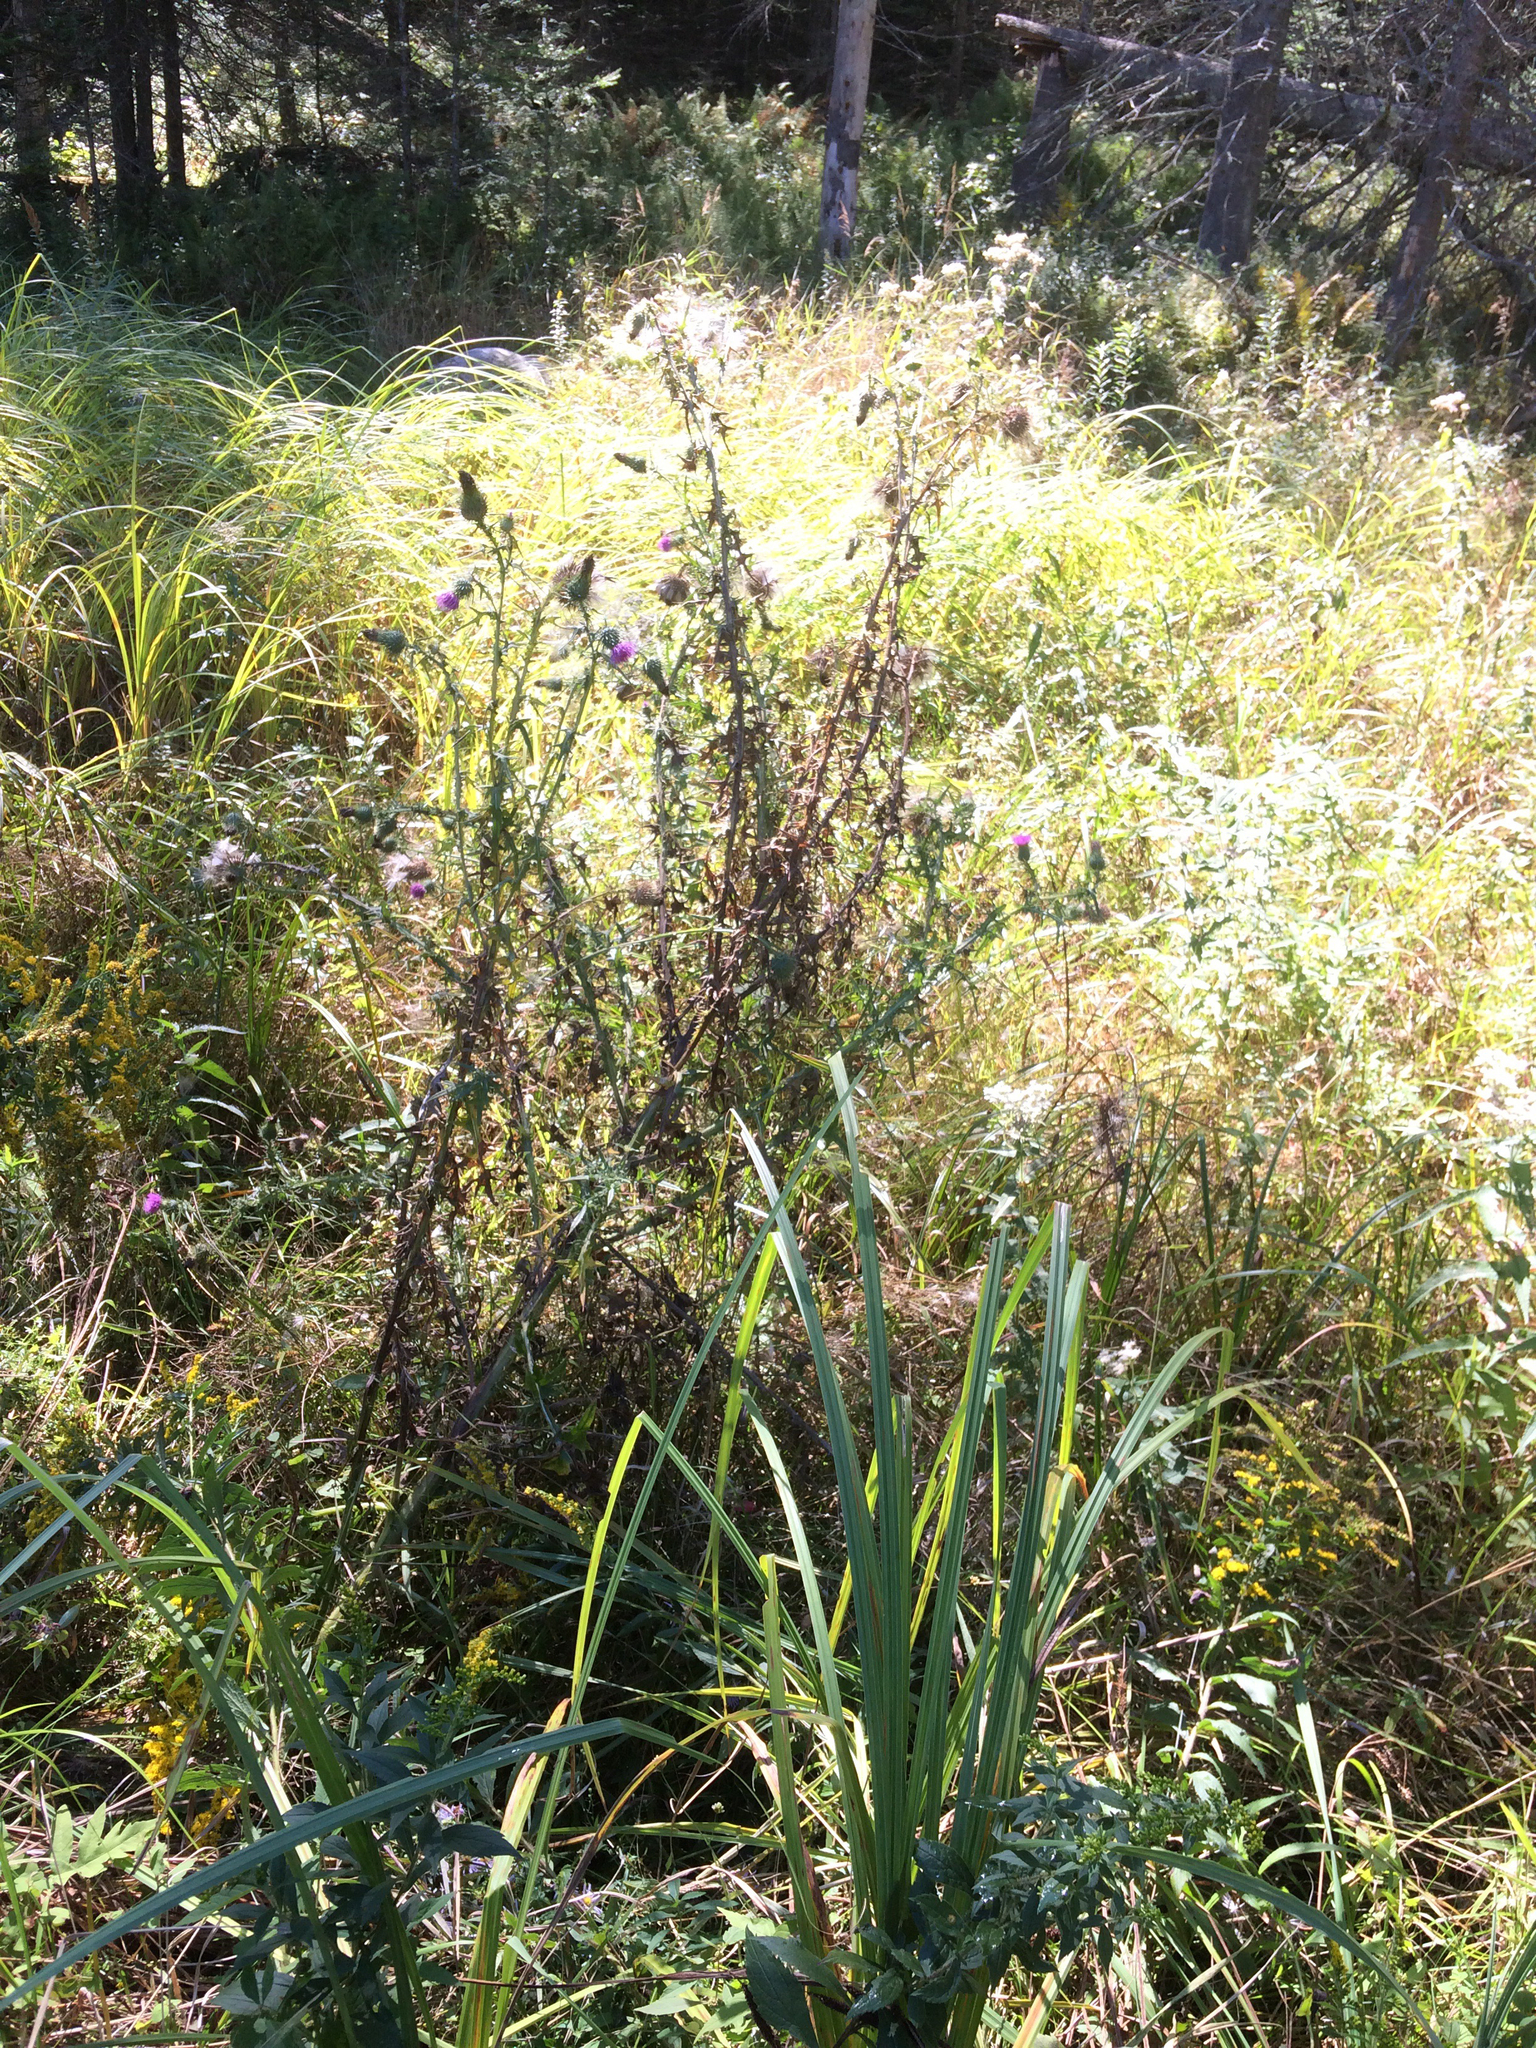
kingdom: Plantae
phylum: Tracheophyta
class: Magnoliopsida
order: Asterales
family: Asteraceae
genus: Cirsium
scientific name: Cirsium vulgare
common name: Bull thistle
